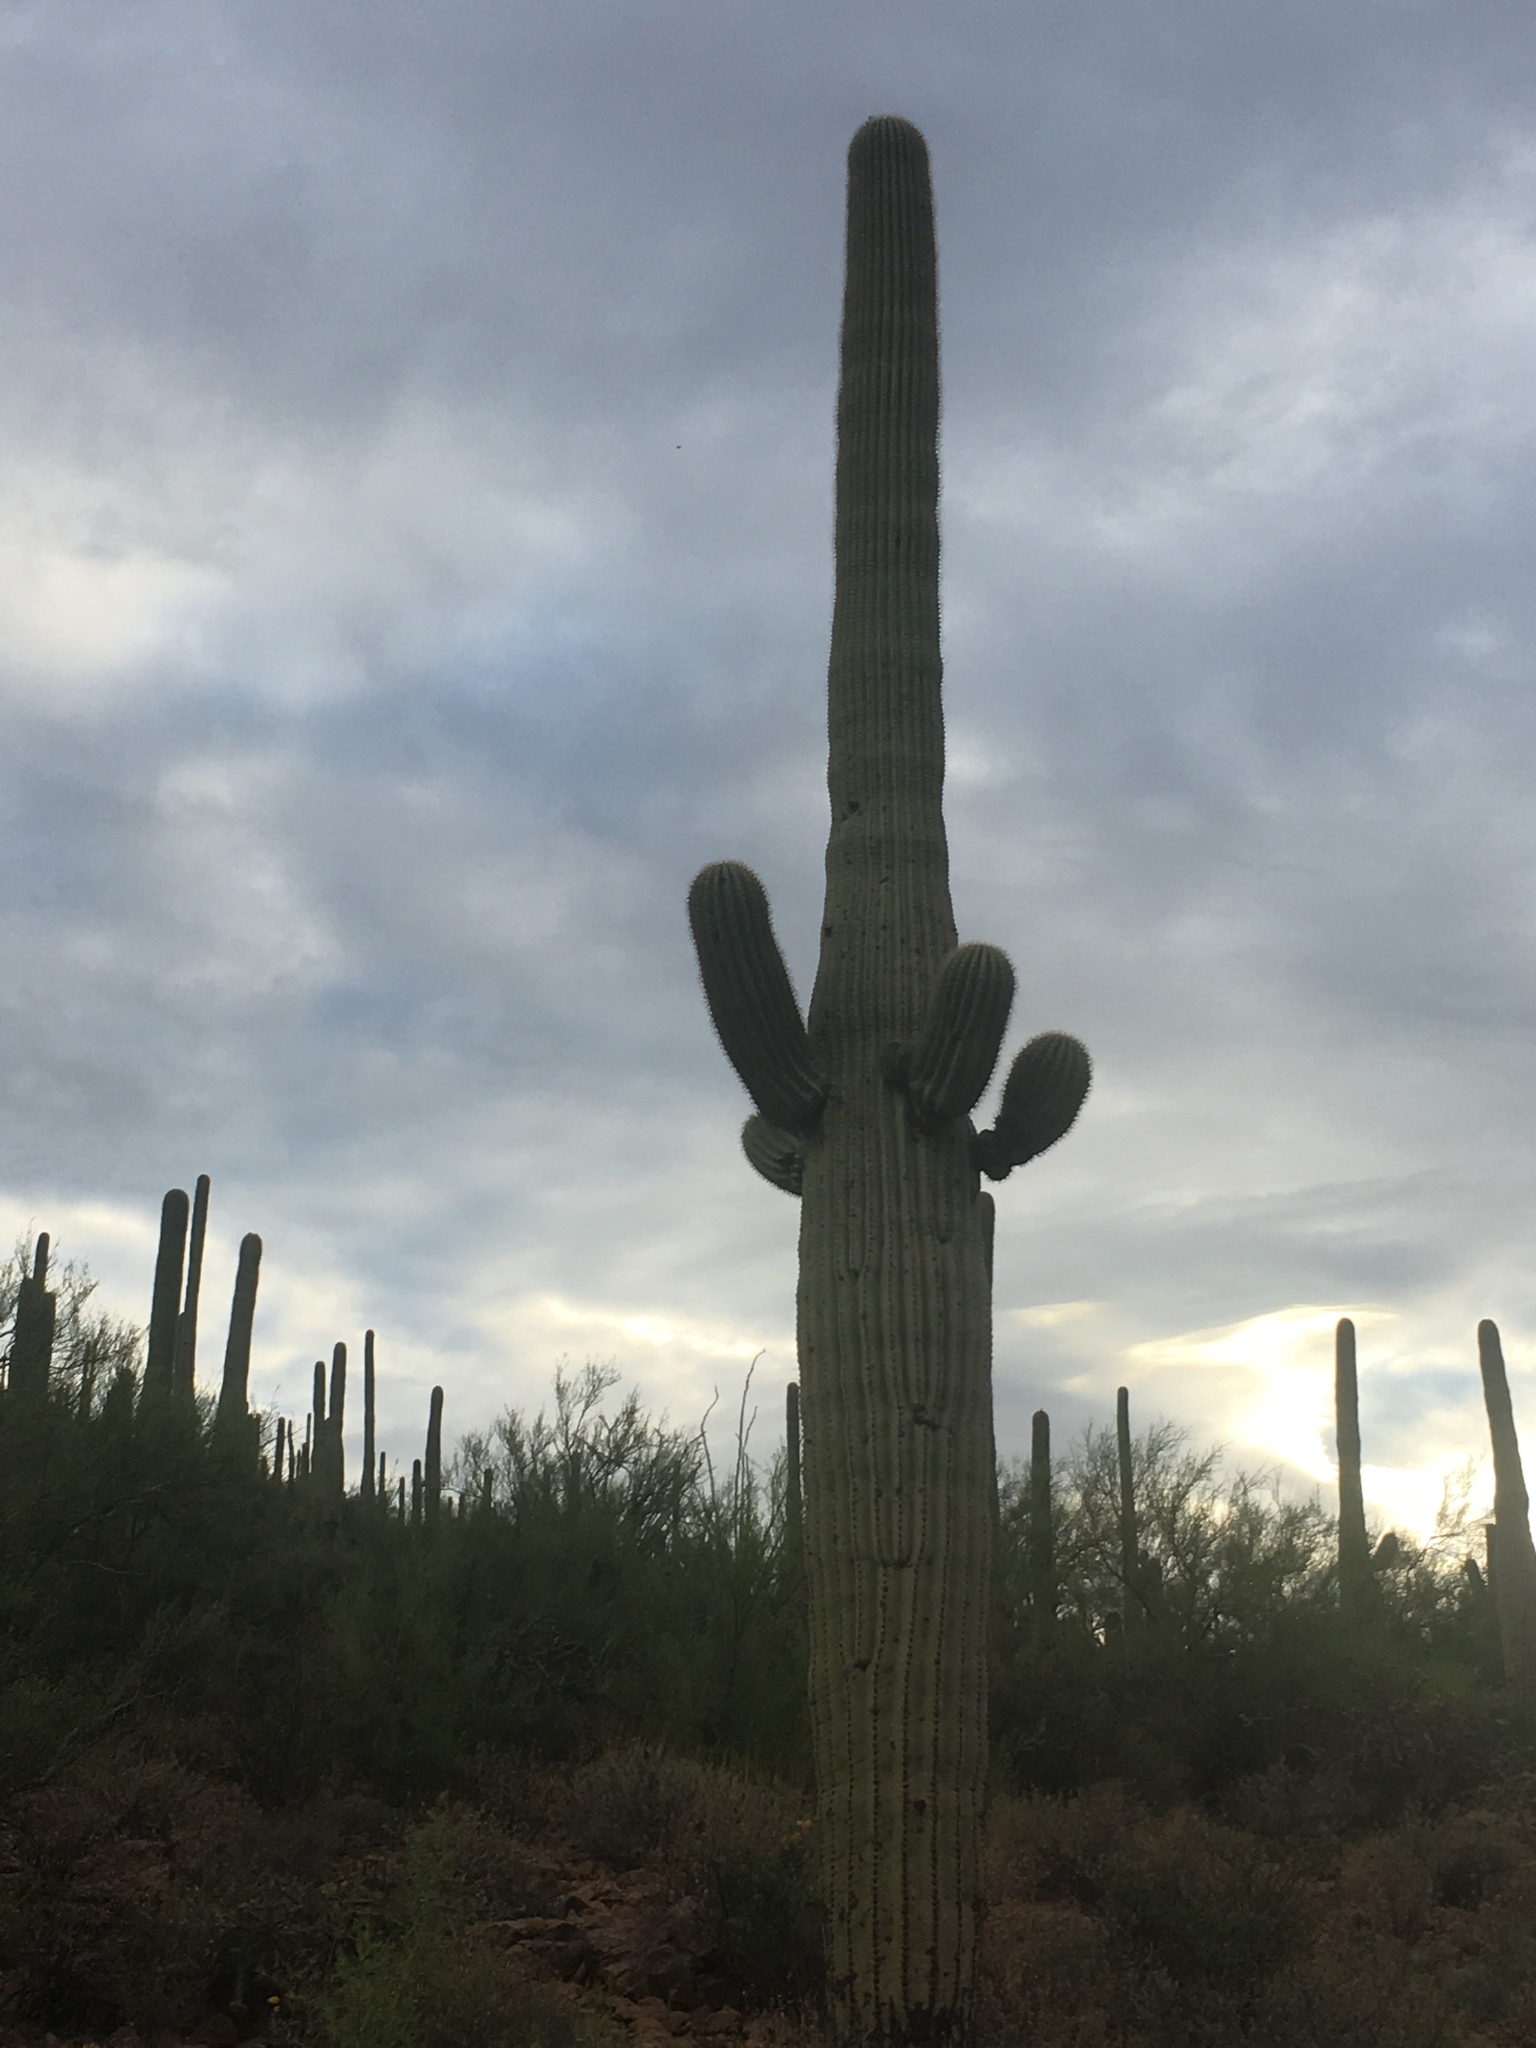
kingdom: Plantae
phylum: Tracheophyta
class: Magnoliopsida
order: Caryophyllales
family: Cactaceae
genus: Carnegiea
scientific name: Carnegiea gigantea
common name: Saguaro
